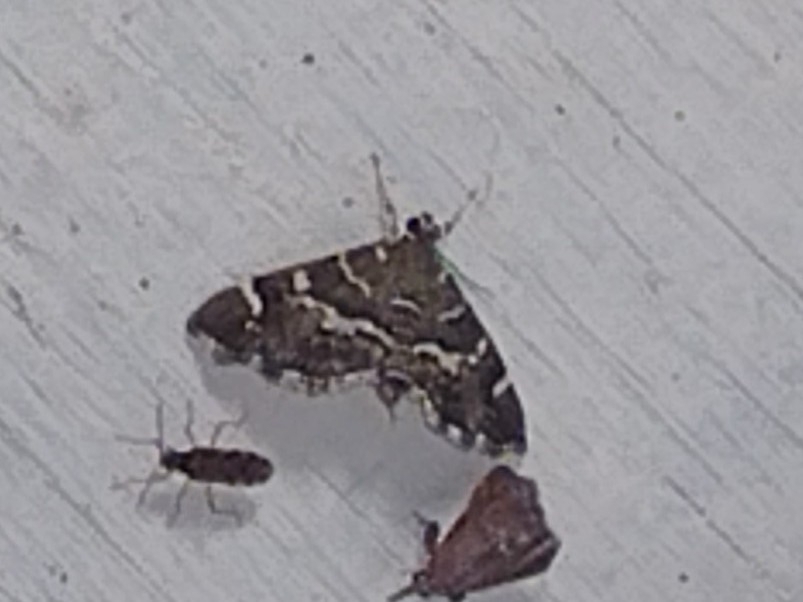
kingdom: Animalia
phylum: Arthropoda
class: Insecta
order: Lepidoptera
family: Crambidae
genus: Hymenia
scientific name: Hymenia perspectalis
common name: Spotted beet webworm
